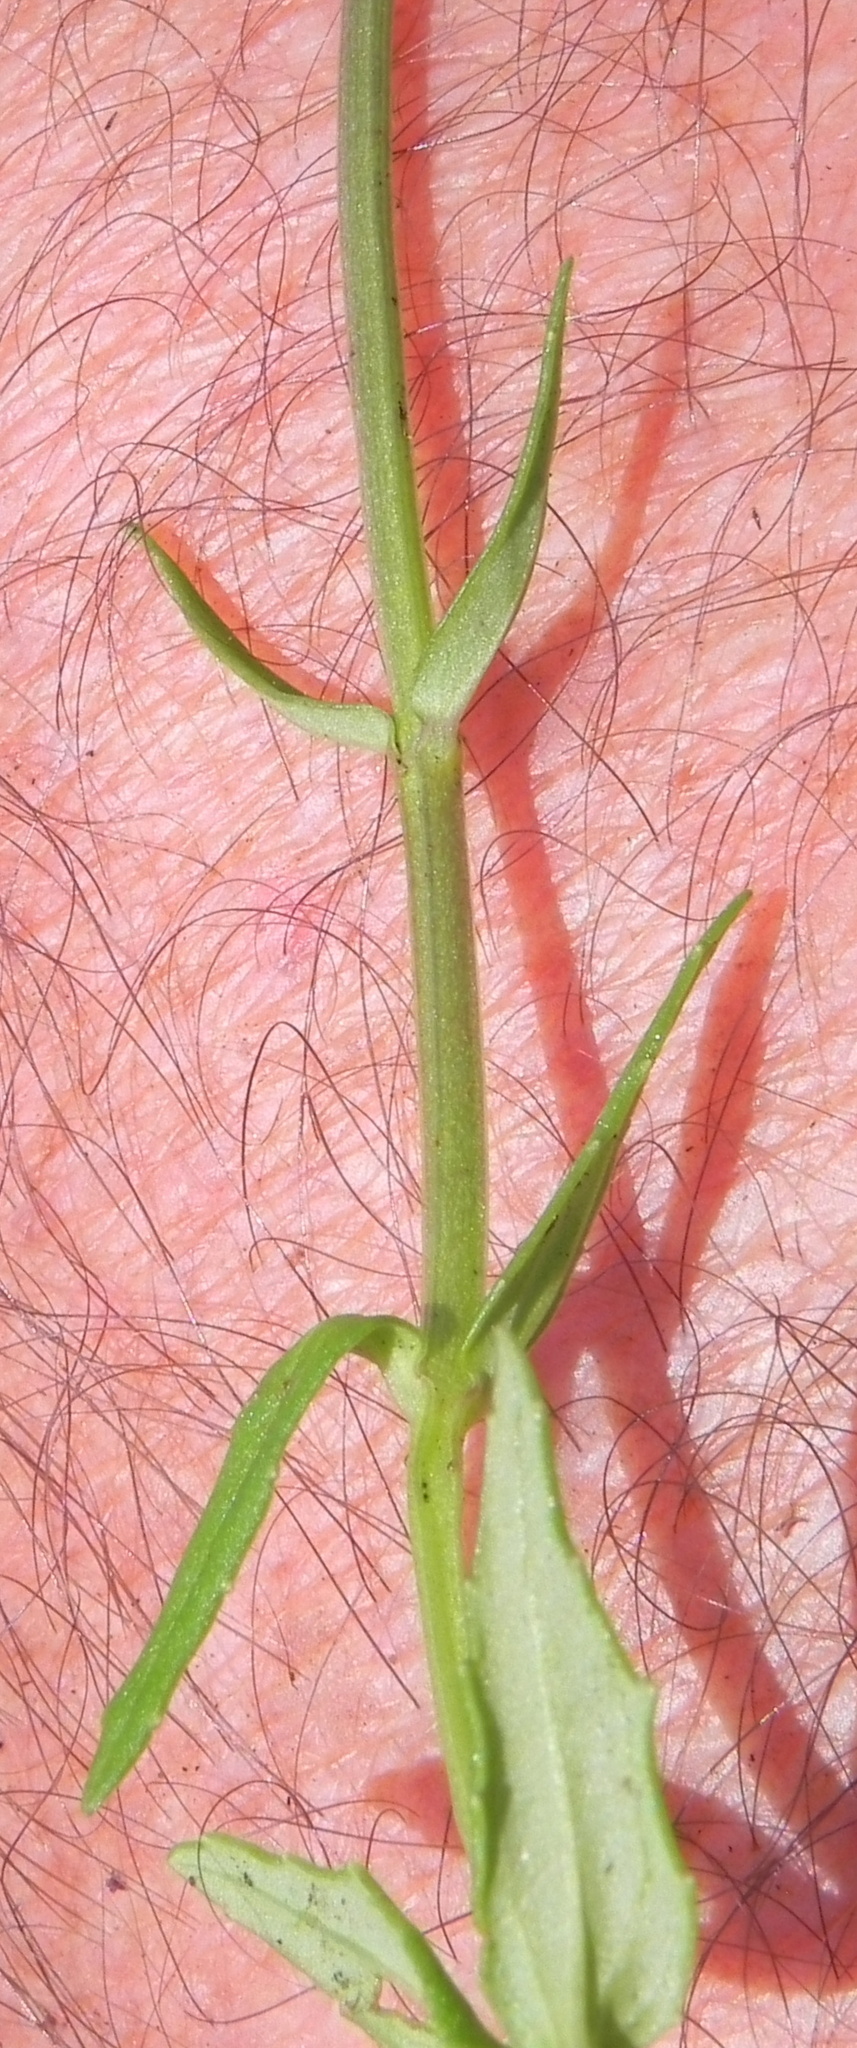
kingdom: Plantae
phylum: Tracheophyta
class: Magnoliopsida
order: Asterales
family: Campanulaceae
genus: Monopsis
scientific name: Monopsis decipiens
